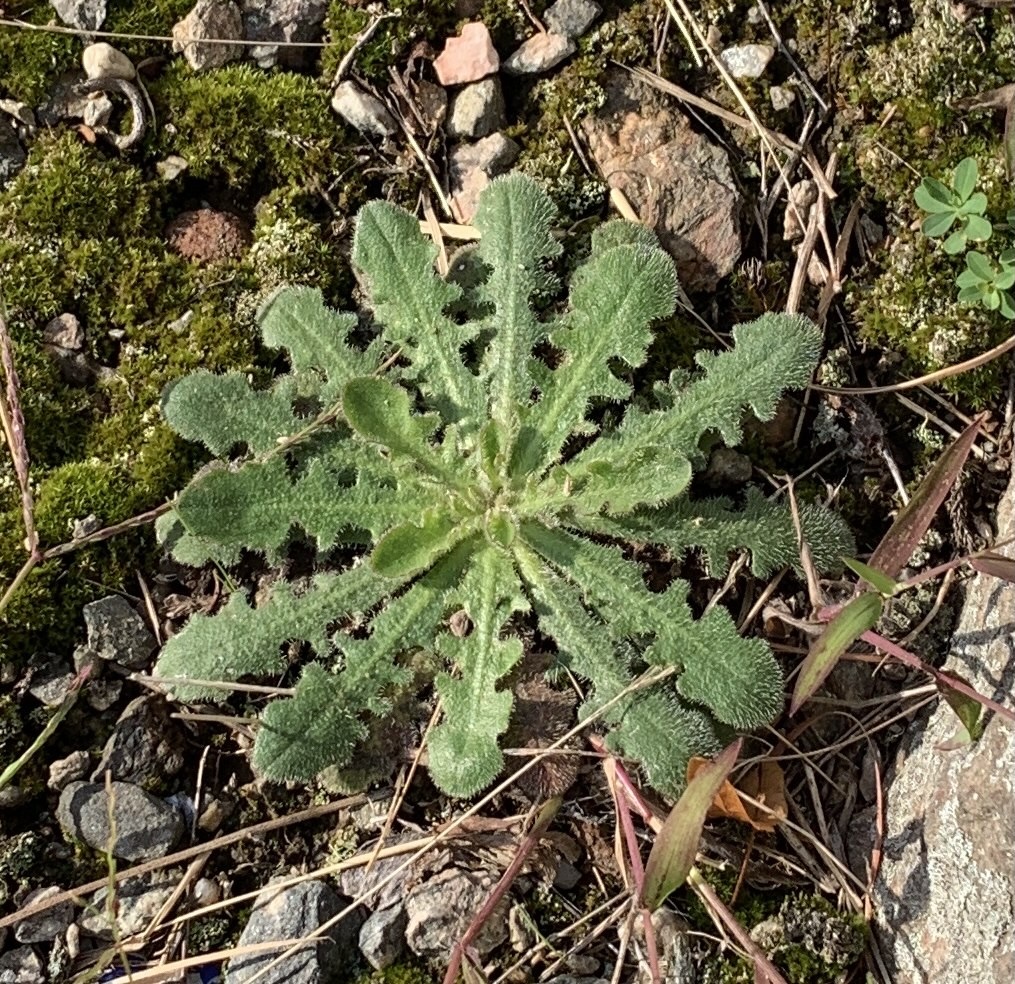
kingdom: Plantae
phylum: Tracheophyta
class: Magnoliopsida
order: Asterales
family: Asteraceae
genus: Hypochaeris
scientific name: Hypochaeris radicata
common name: Flatweed
